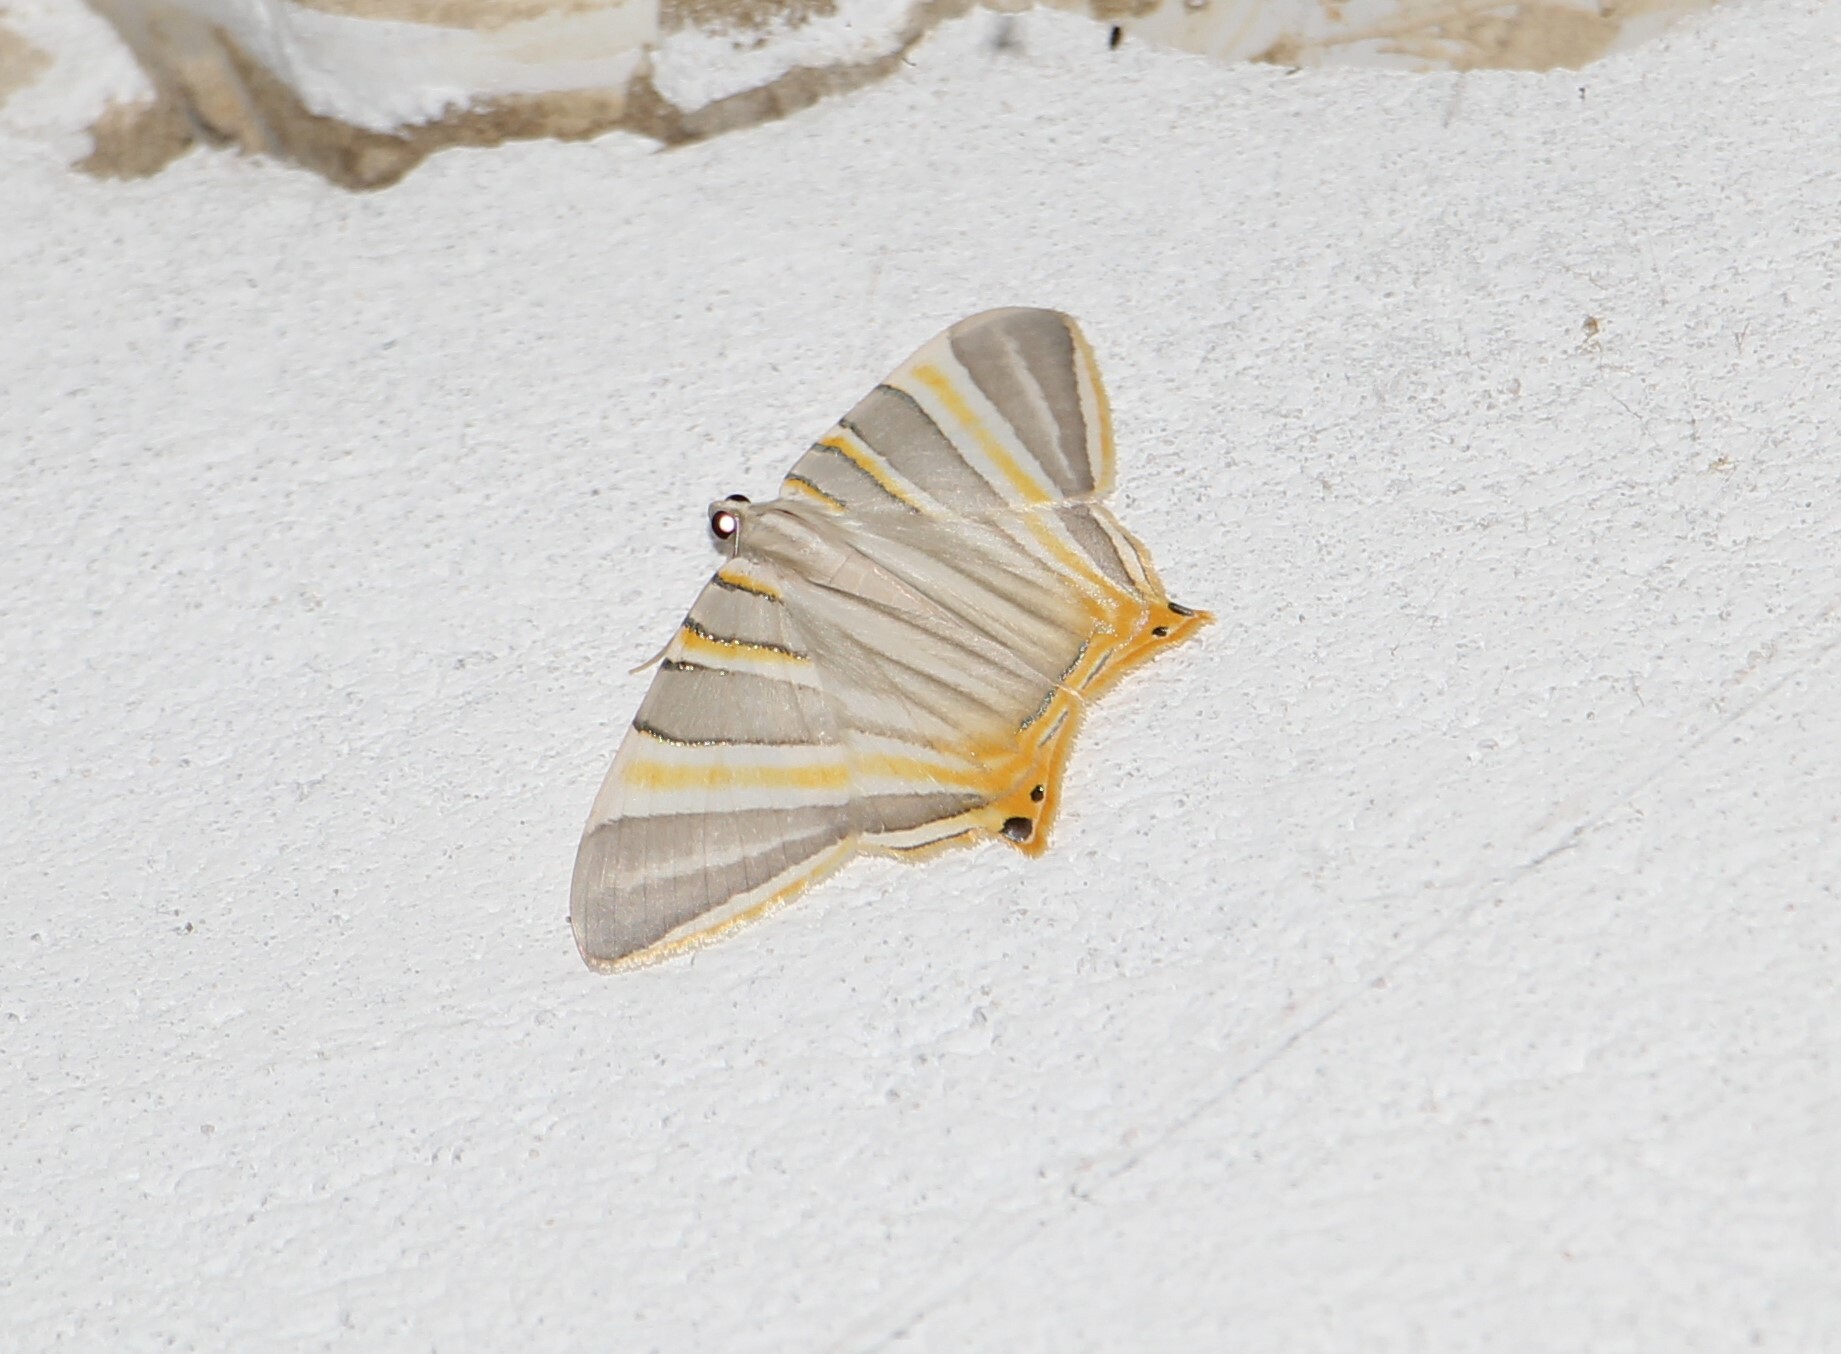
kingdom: Animalia
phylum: Arthropoda
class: Insecta
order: Lepidoptera
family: Geometridae
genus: Phrygionis
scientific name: Phrygionis platinata
